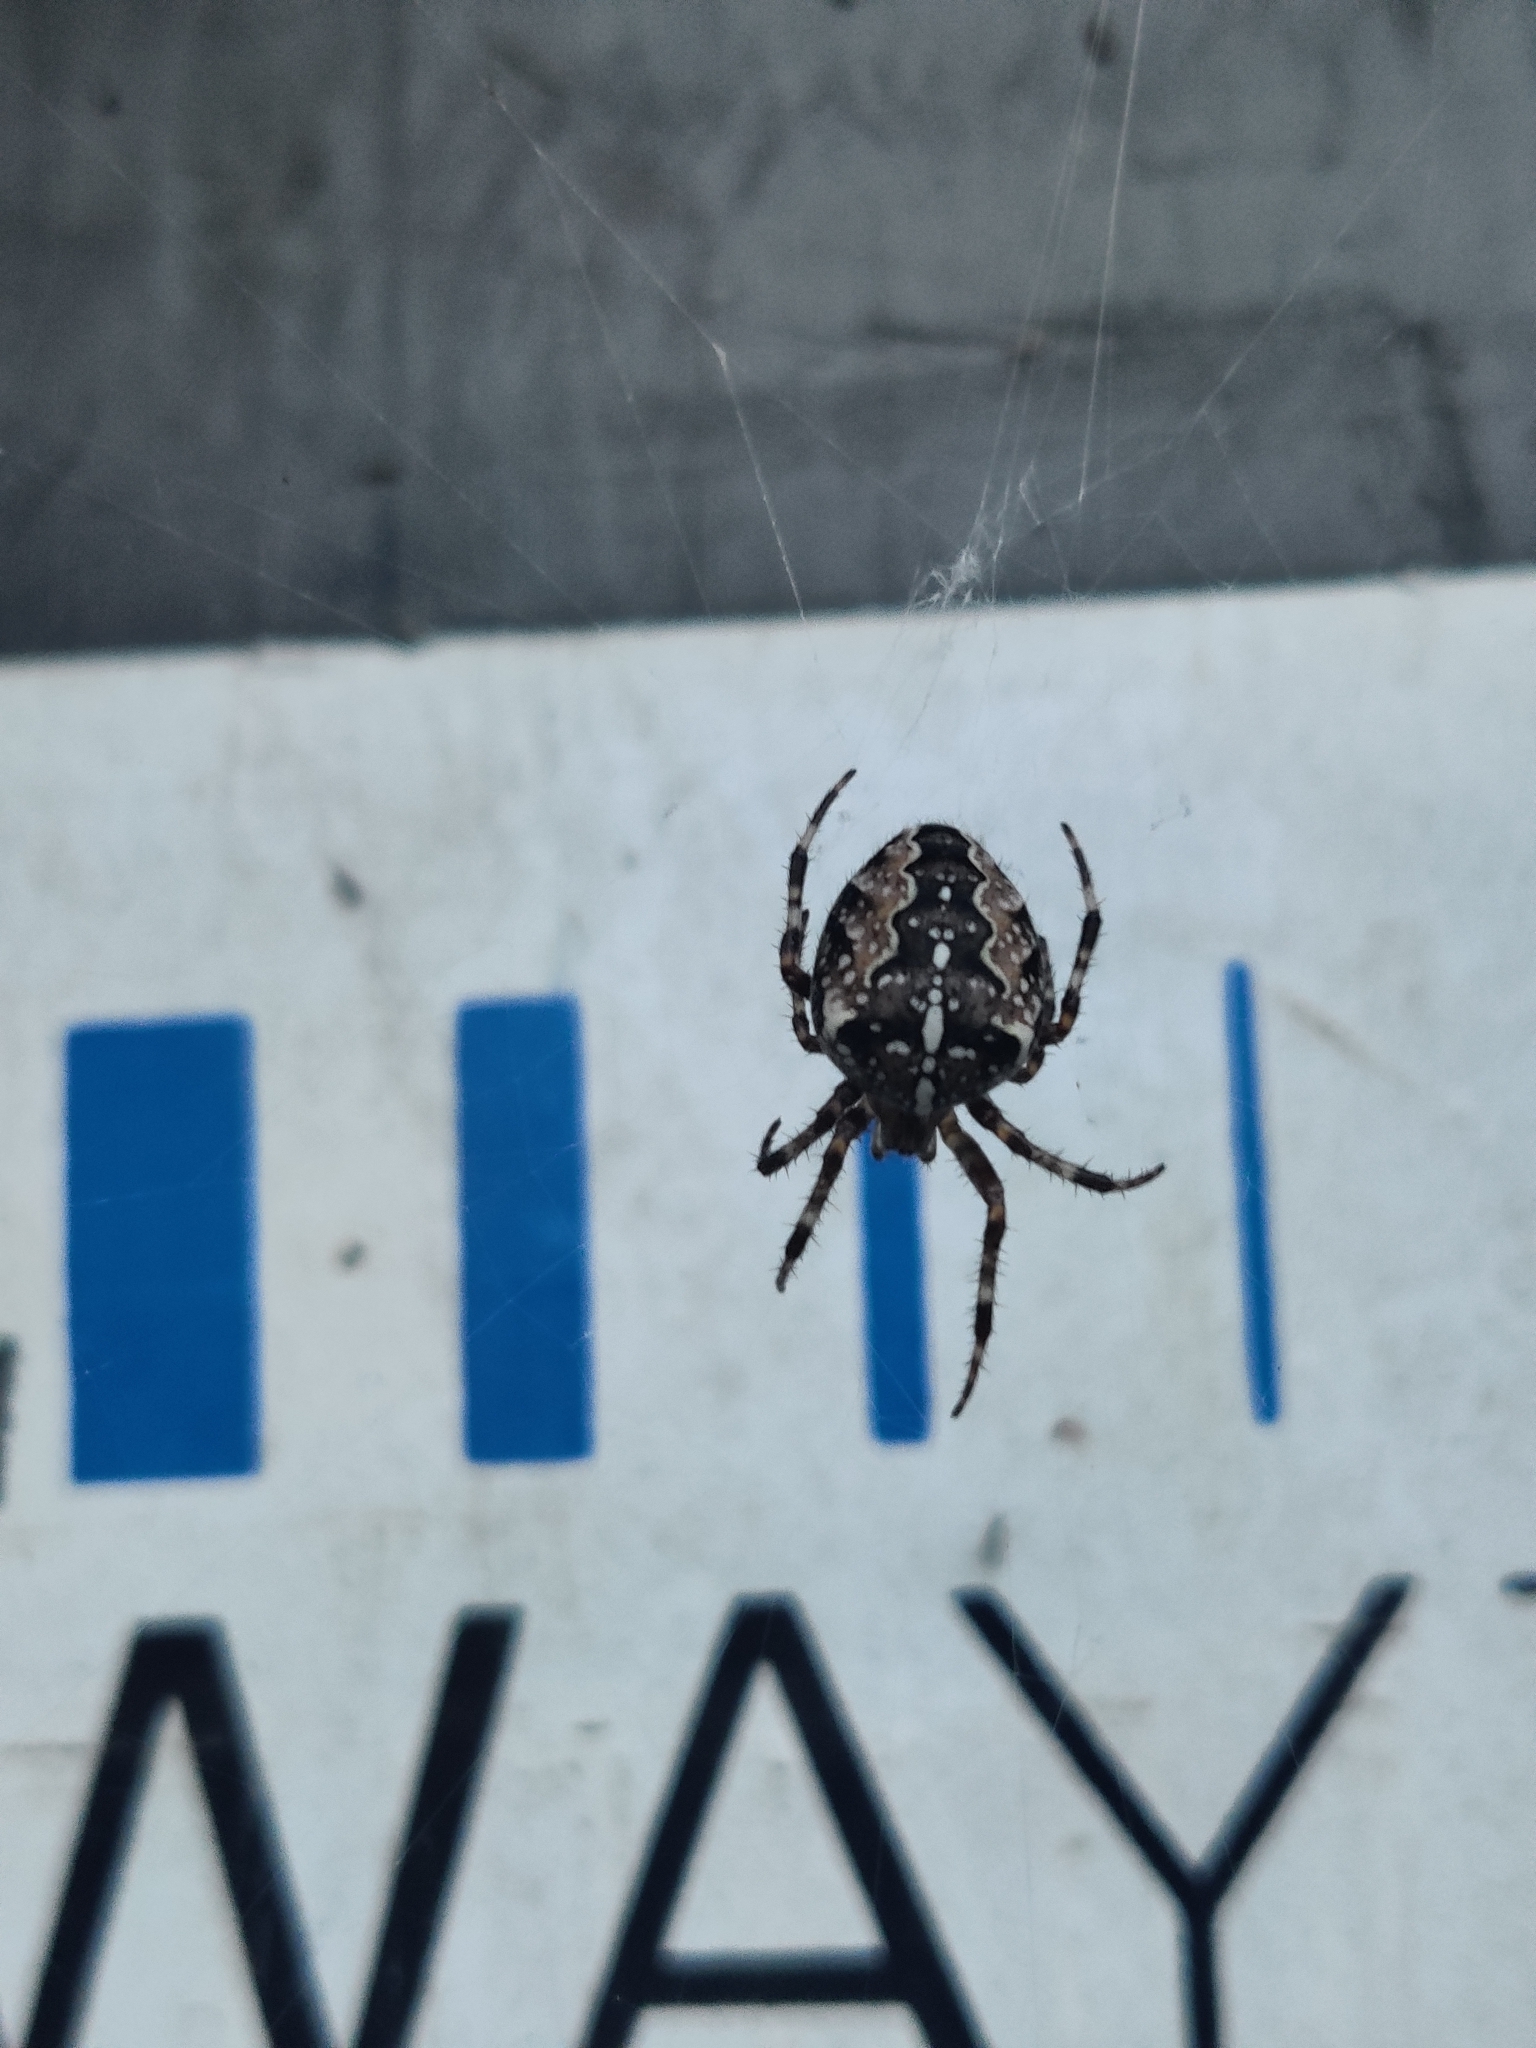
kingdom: Animalia
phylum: Arthropoda
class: Arachnida
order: Araneae
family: Araneidae
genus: Araneus
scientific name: Araneus diadematus
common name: Cross orbweaver
